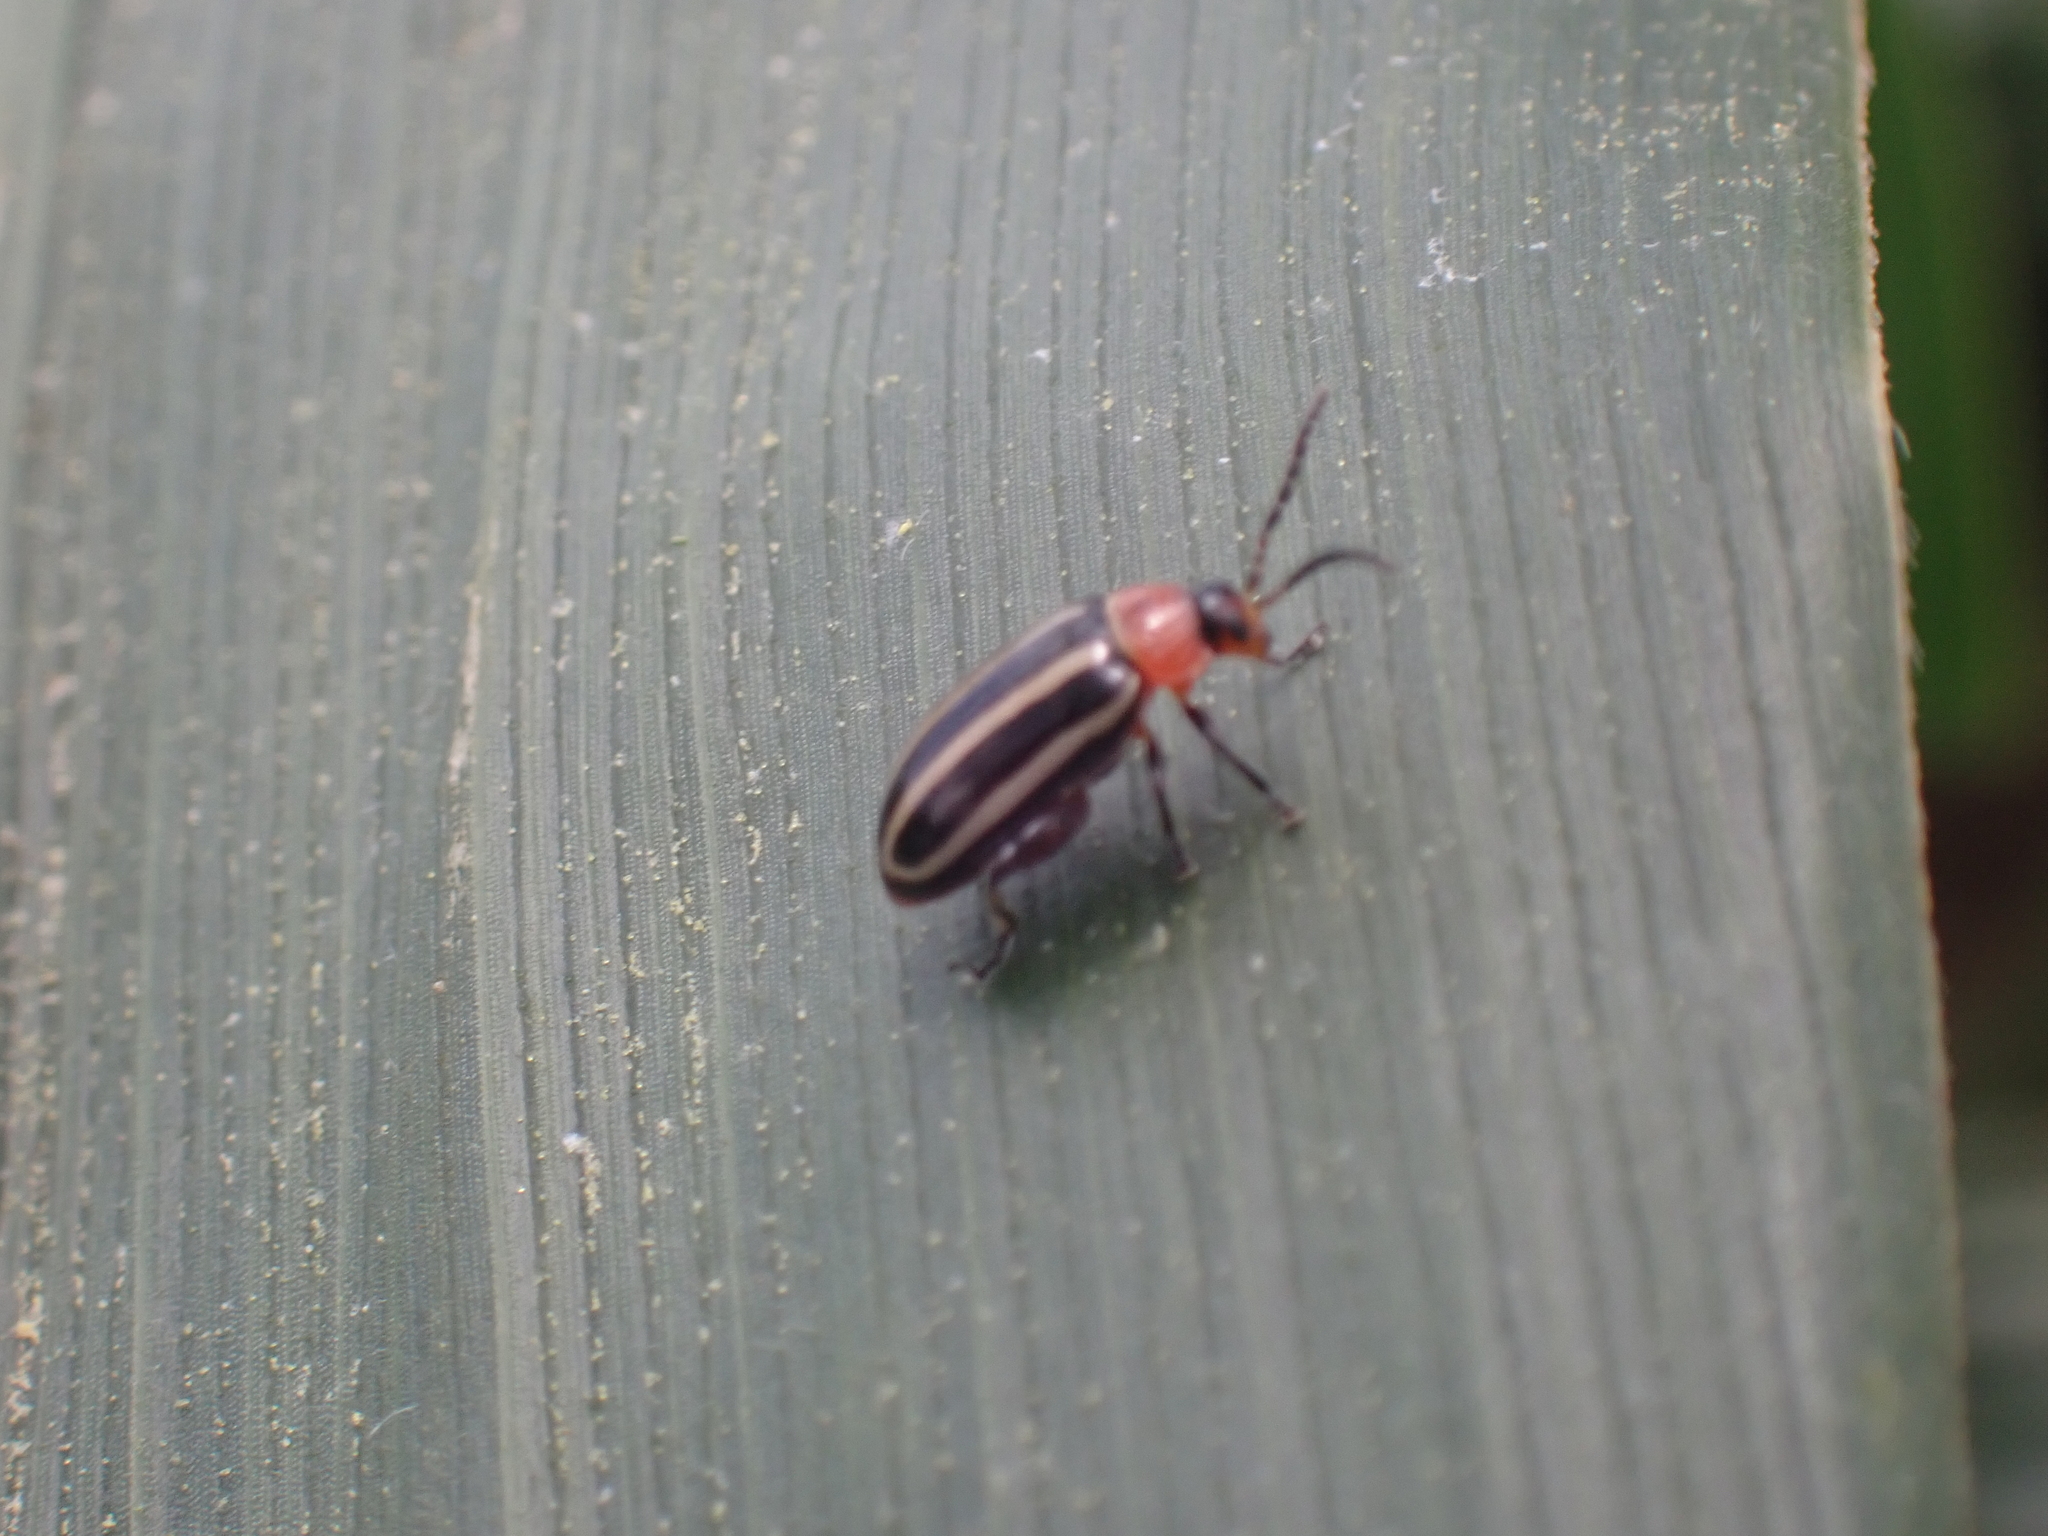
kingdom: Animalia
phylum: Arthropoda
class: Insecta
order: Coleoptera
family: Chrysomelidae
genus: Disonycha
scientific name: Disonycha glabrata
